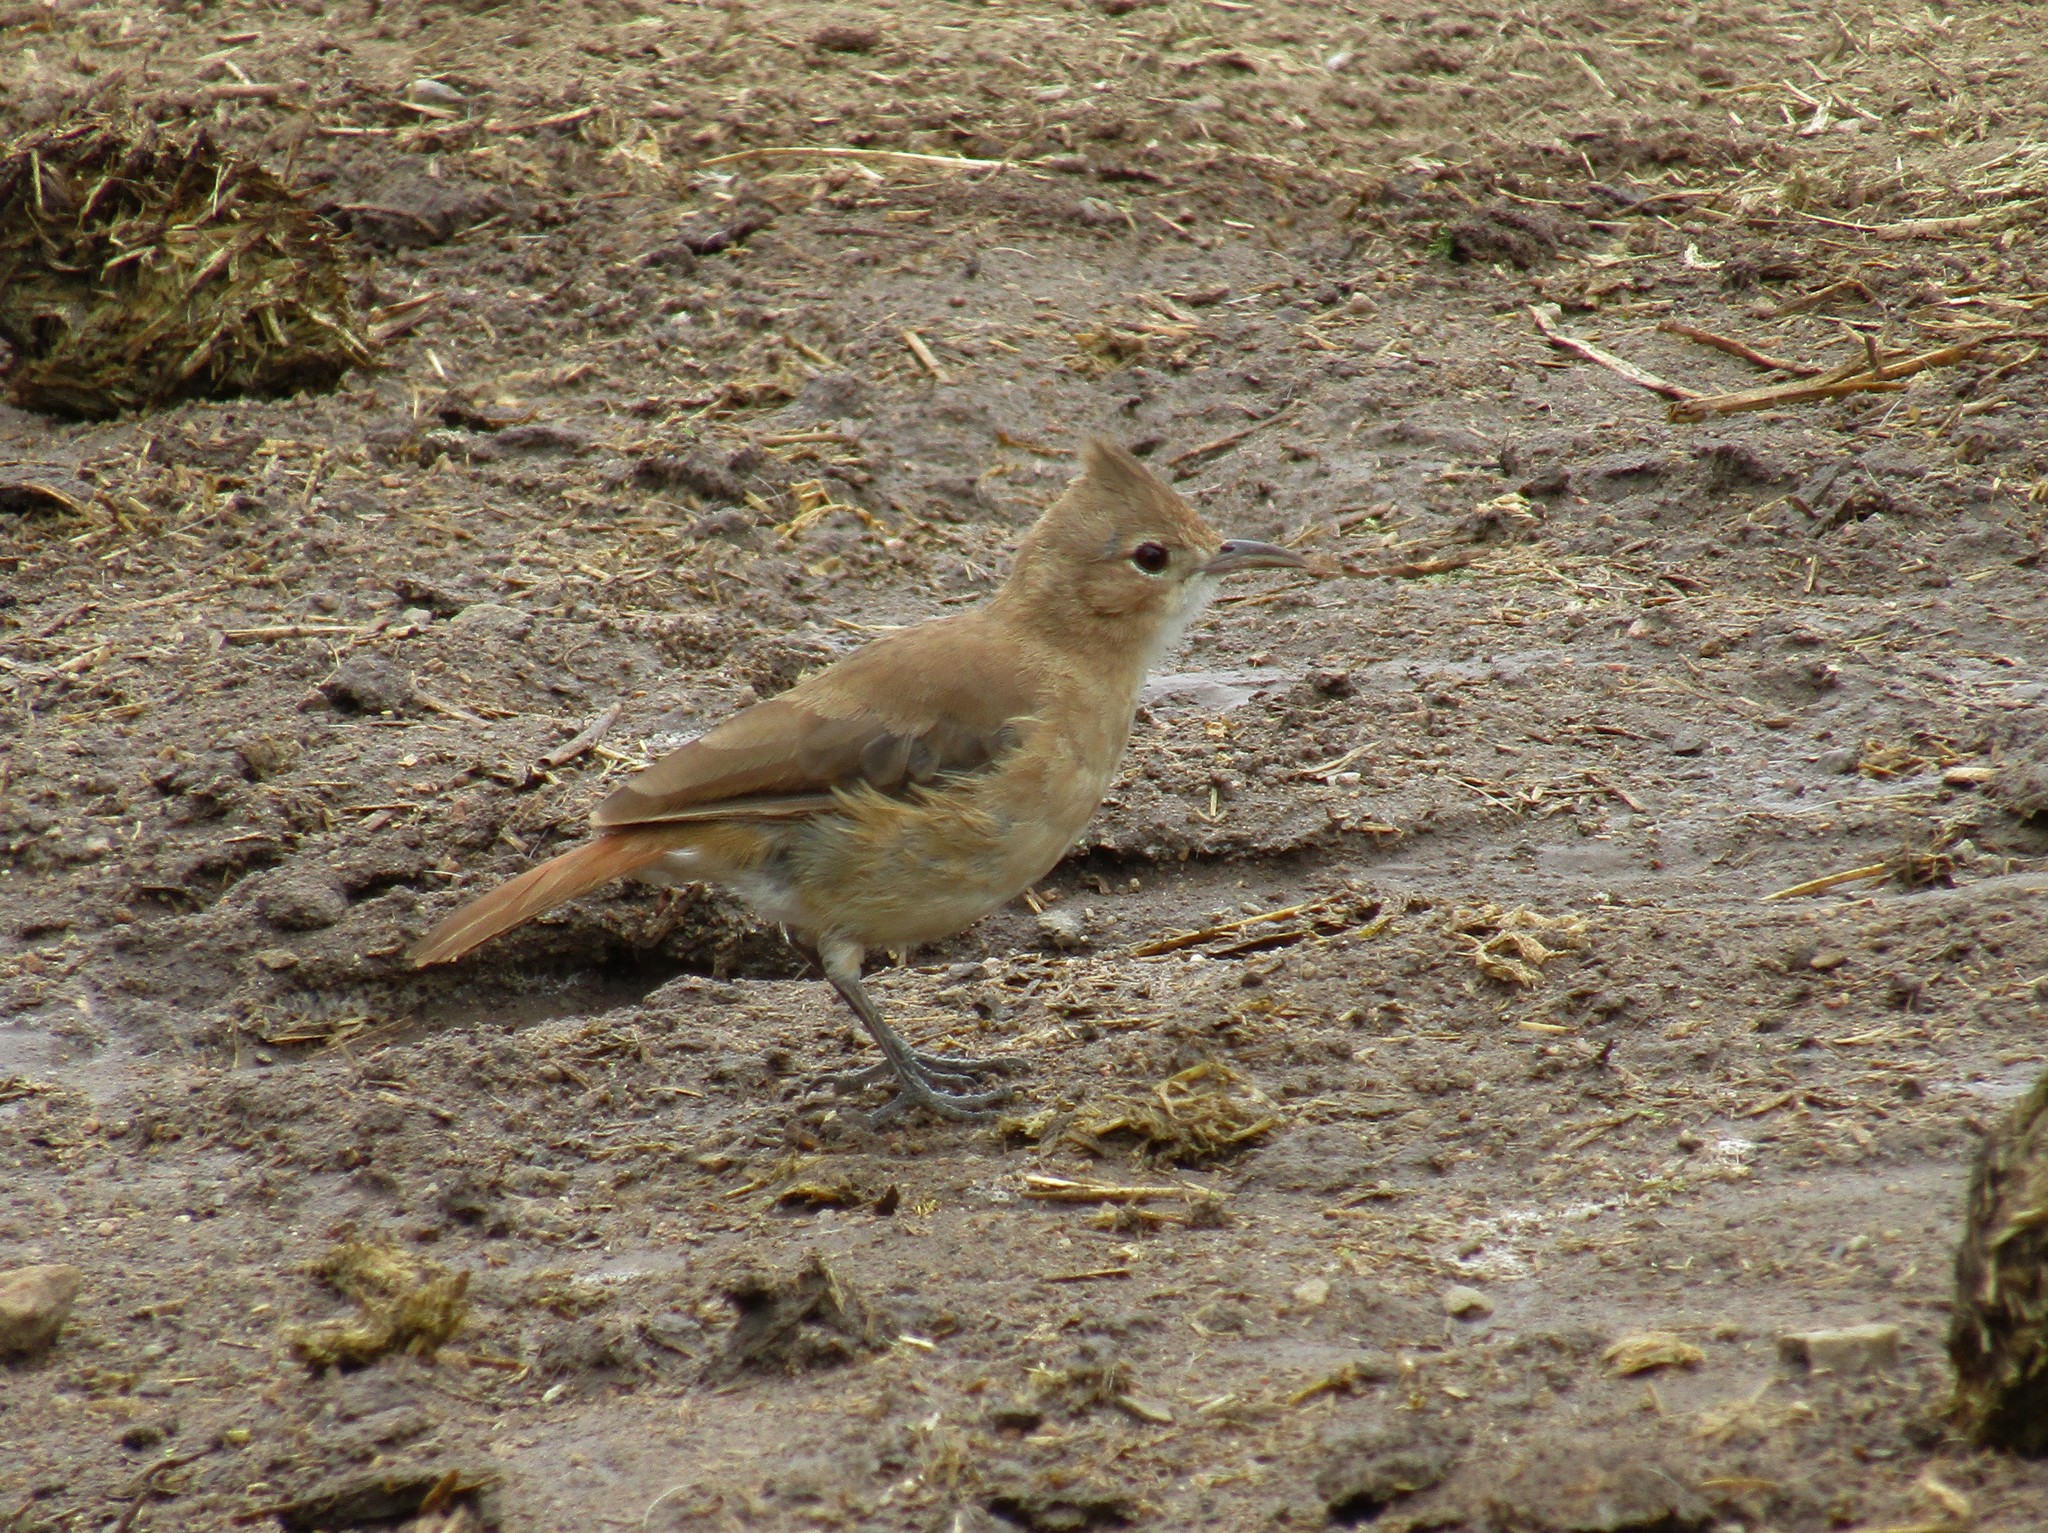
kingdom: Animalia
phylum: Chordata
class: Aves
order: Passeriformes
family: Furnariidae
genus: Furnarius
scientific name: Furnarius cristatus
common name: Crested hornero
